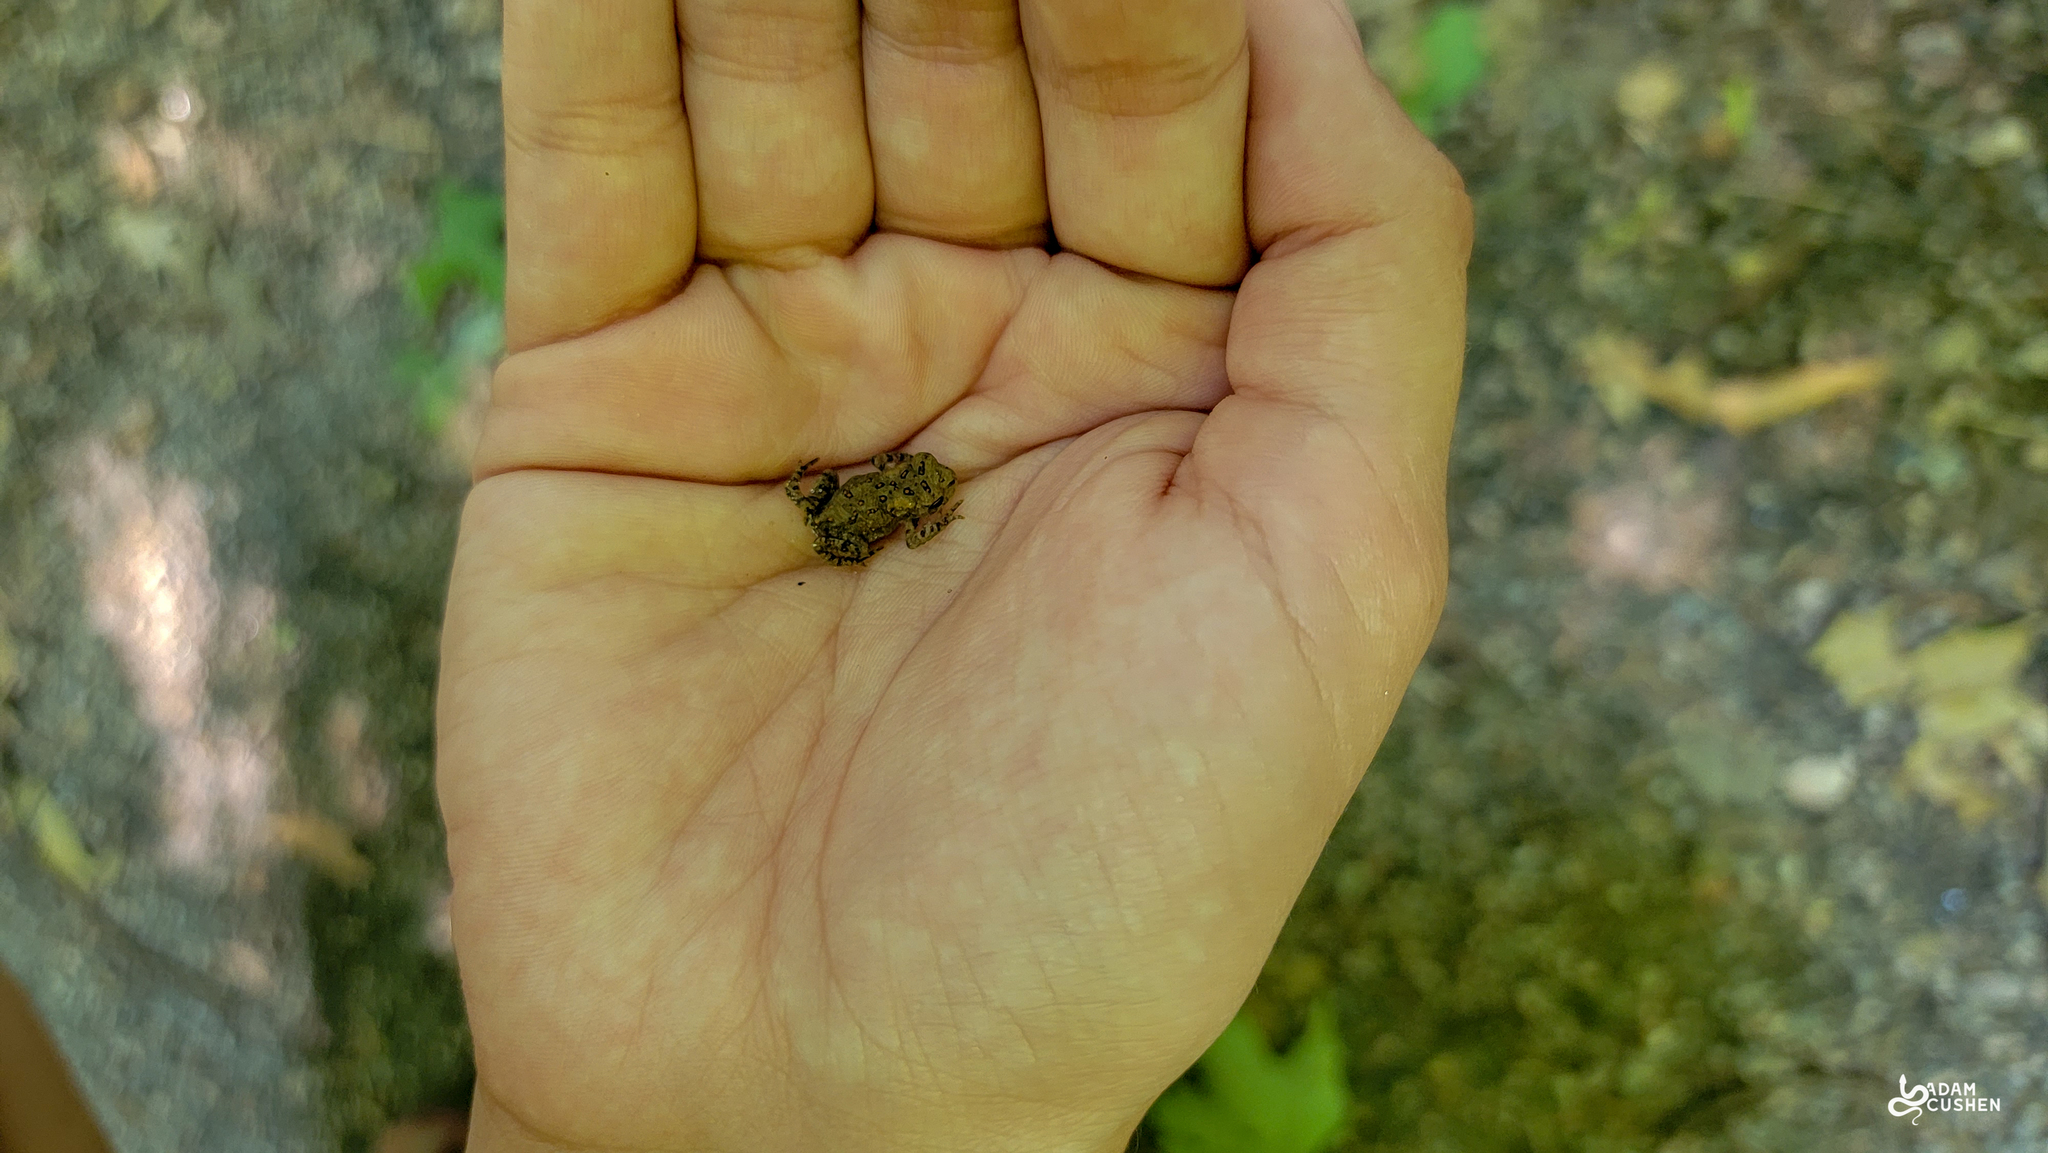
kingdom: Animalia
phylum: Chordata
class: Amphibia
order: Anura
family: Bufonidae
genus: Anaxyrus
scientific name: Anaxyrus americanus
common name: American toad
